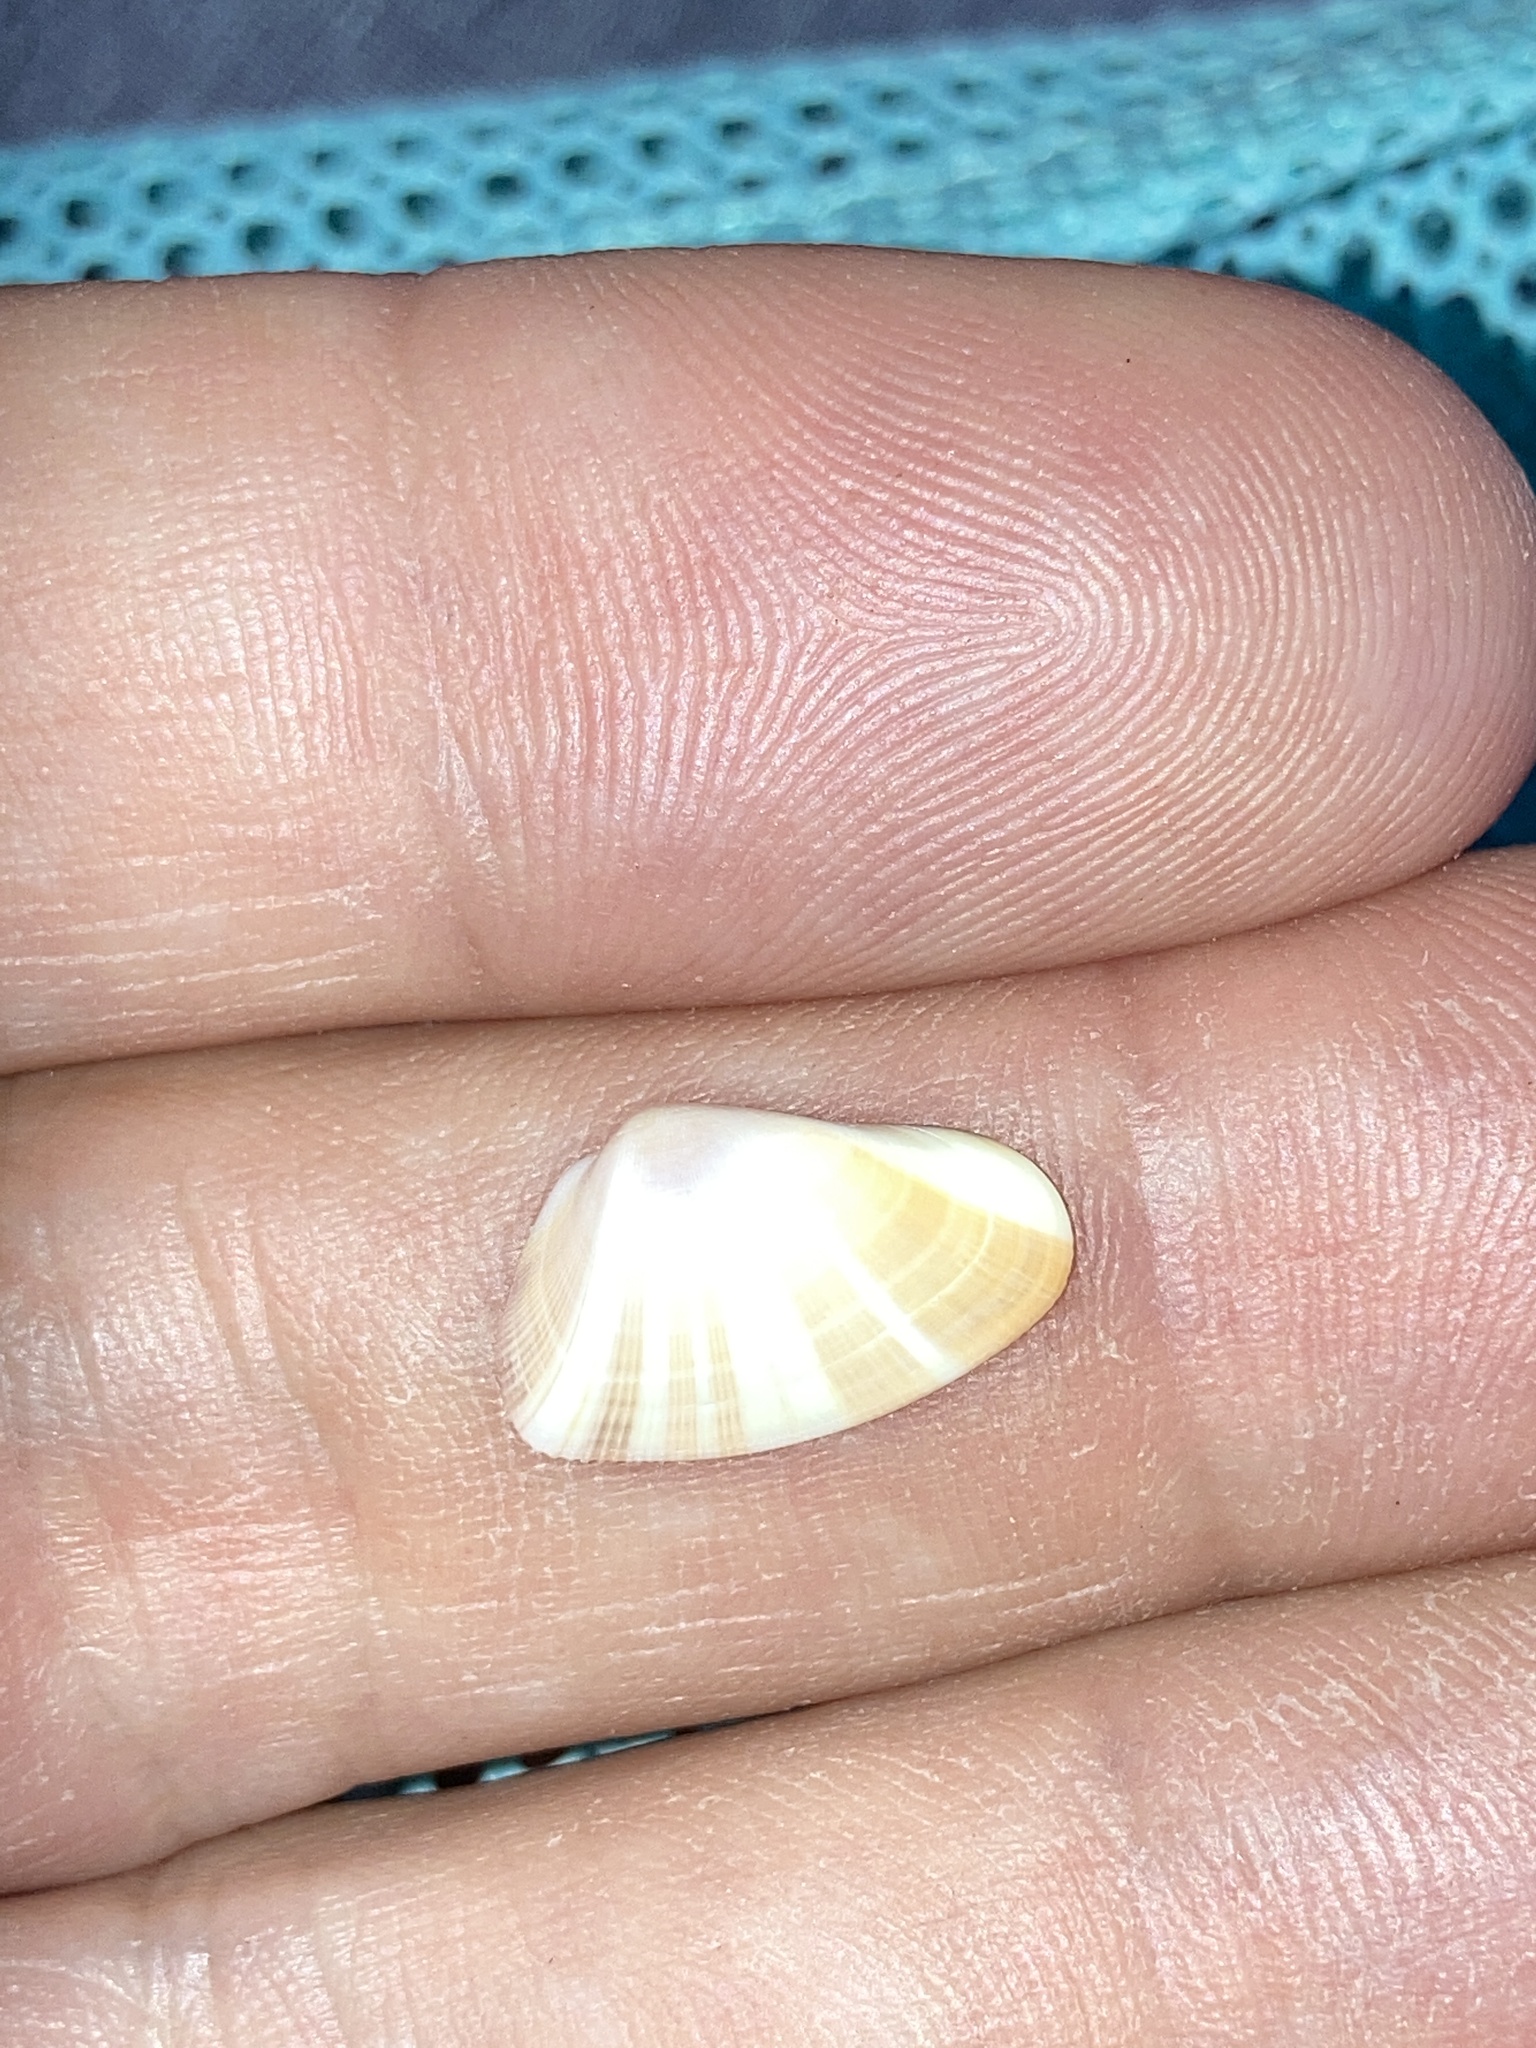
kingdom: Animalia
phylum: Mollusca
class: Bivalvia
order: Cardiida
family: Donacidae
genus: Donax
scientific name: Donax variabilis
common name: Butterfly shell
